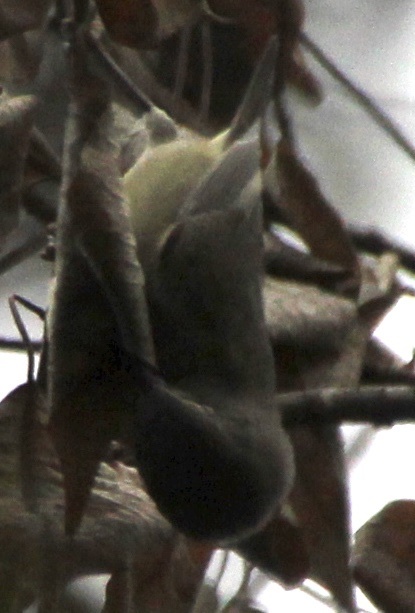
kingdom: Animalia
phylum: Chordata
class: Aves
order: Passeriformes
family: Parulidae
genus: Leiothlypis
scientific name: Leiothlypis celata
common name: Orange-crowned warbler
